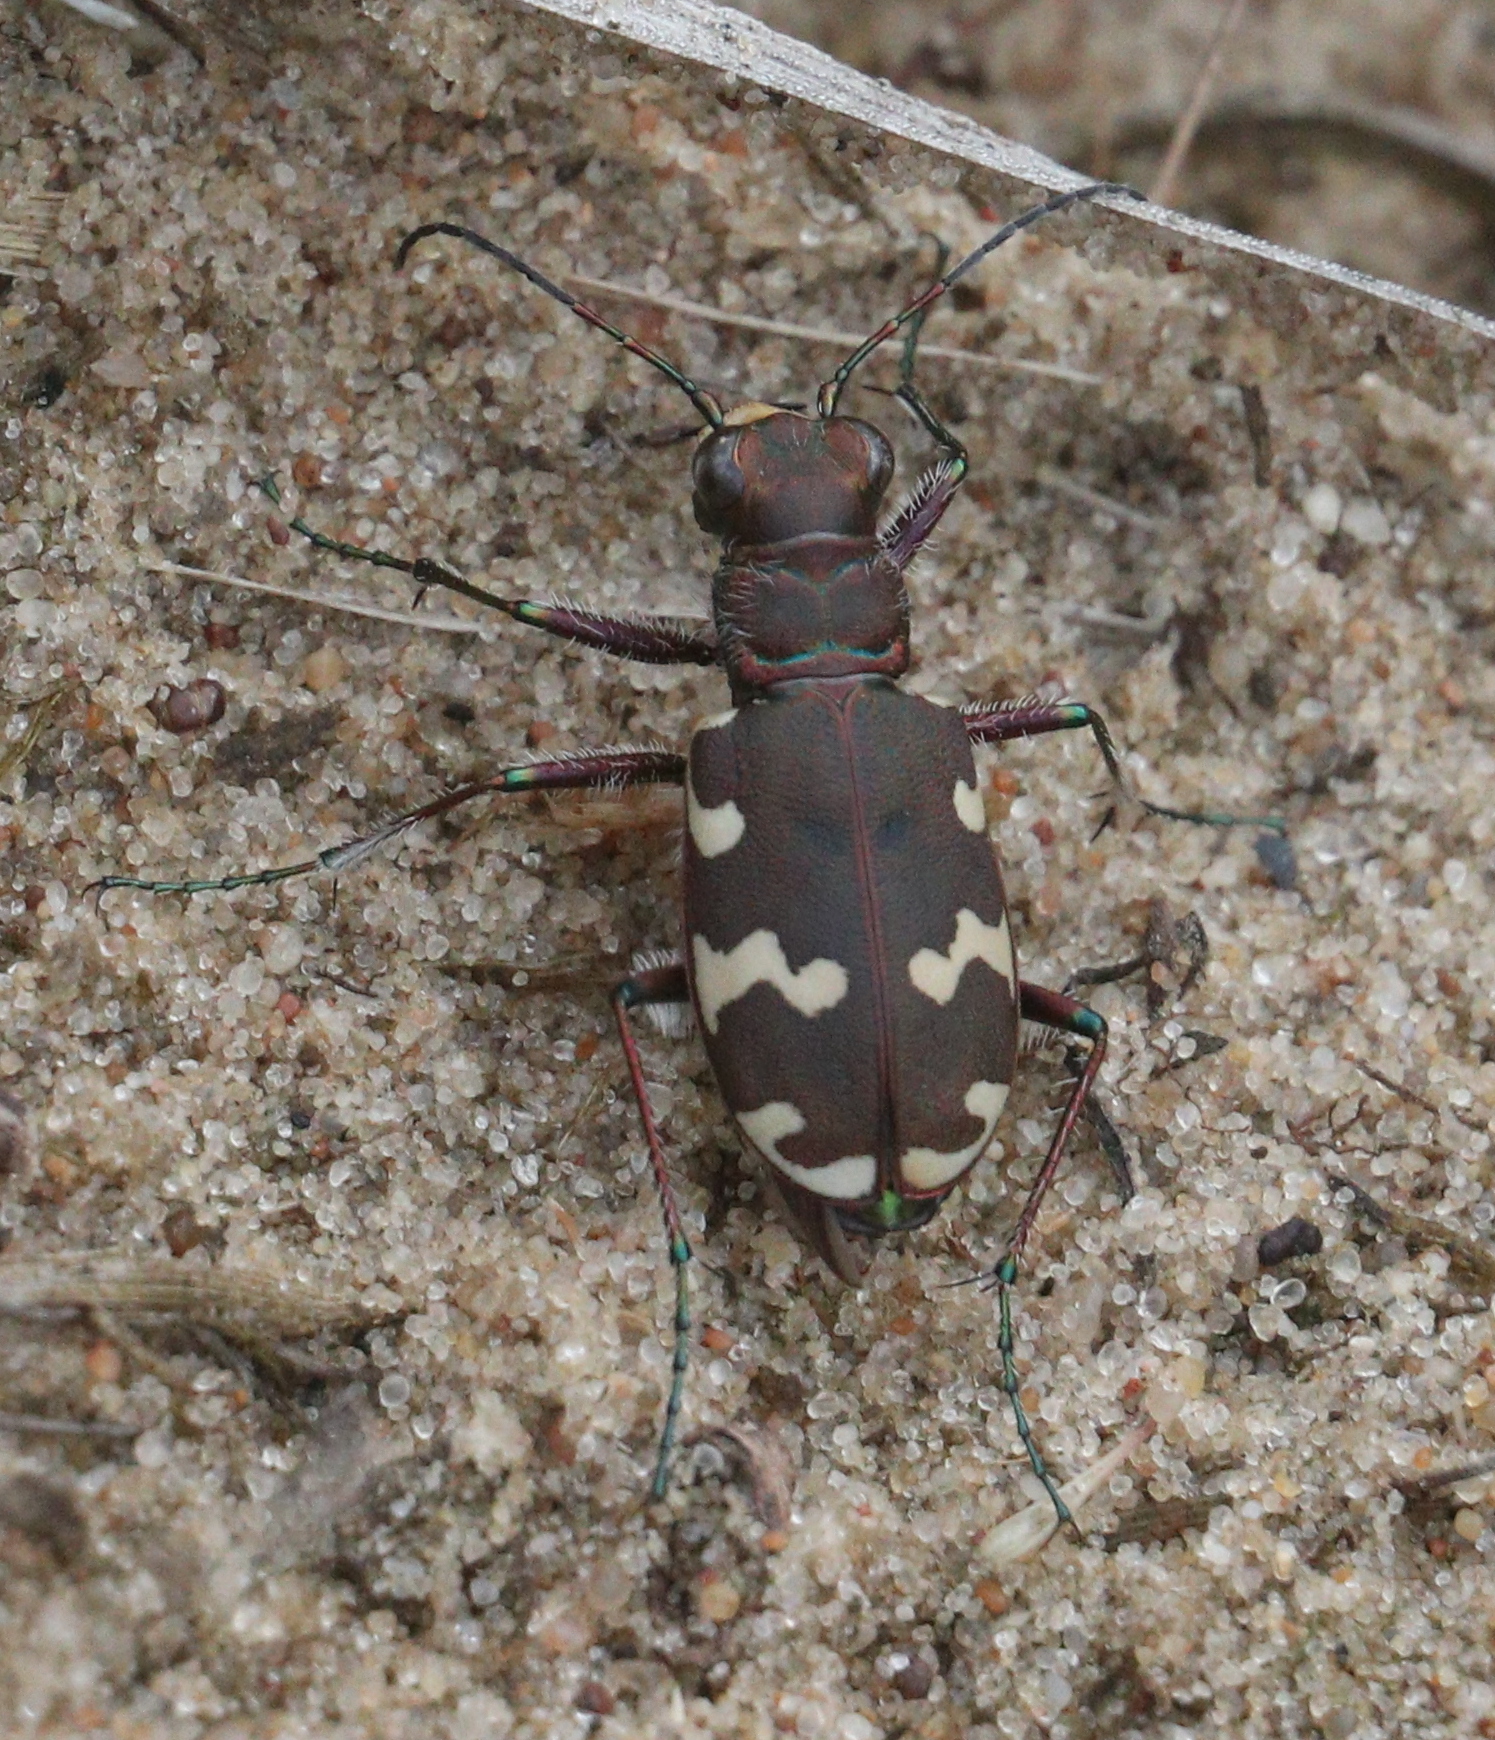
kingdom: Animalia
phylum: Arthropoda
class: Insecta
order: Coleoptera
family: Carabidae
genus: Cicindela
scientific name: Cicindela hybrida
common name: Northern dune tiger beetle
